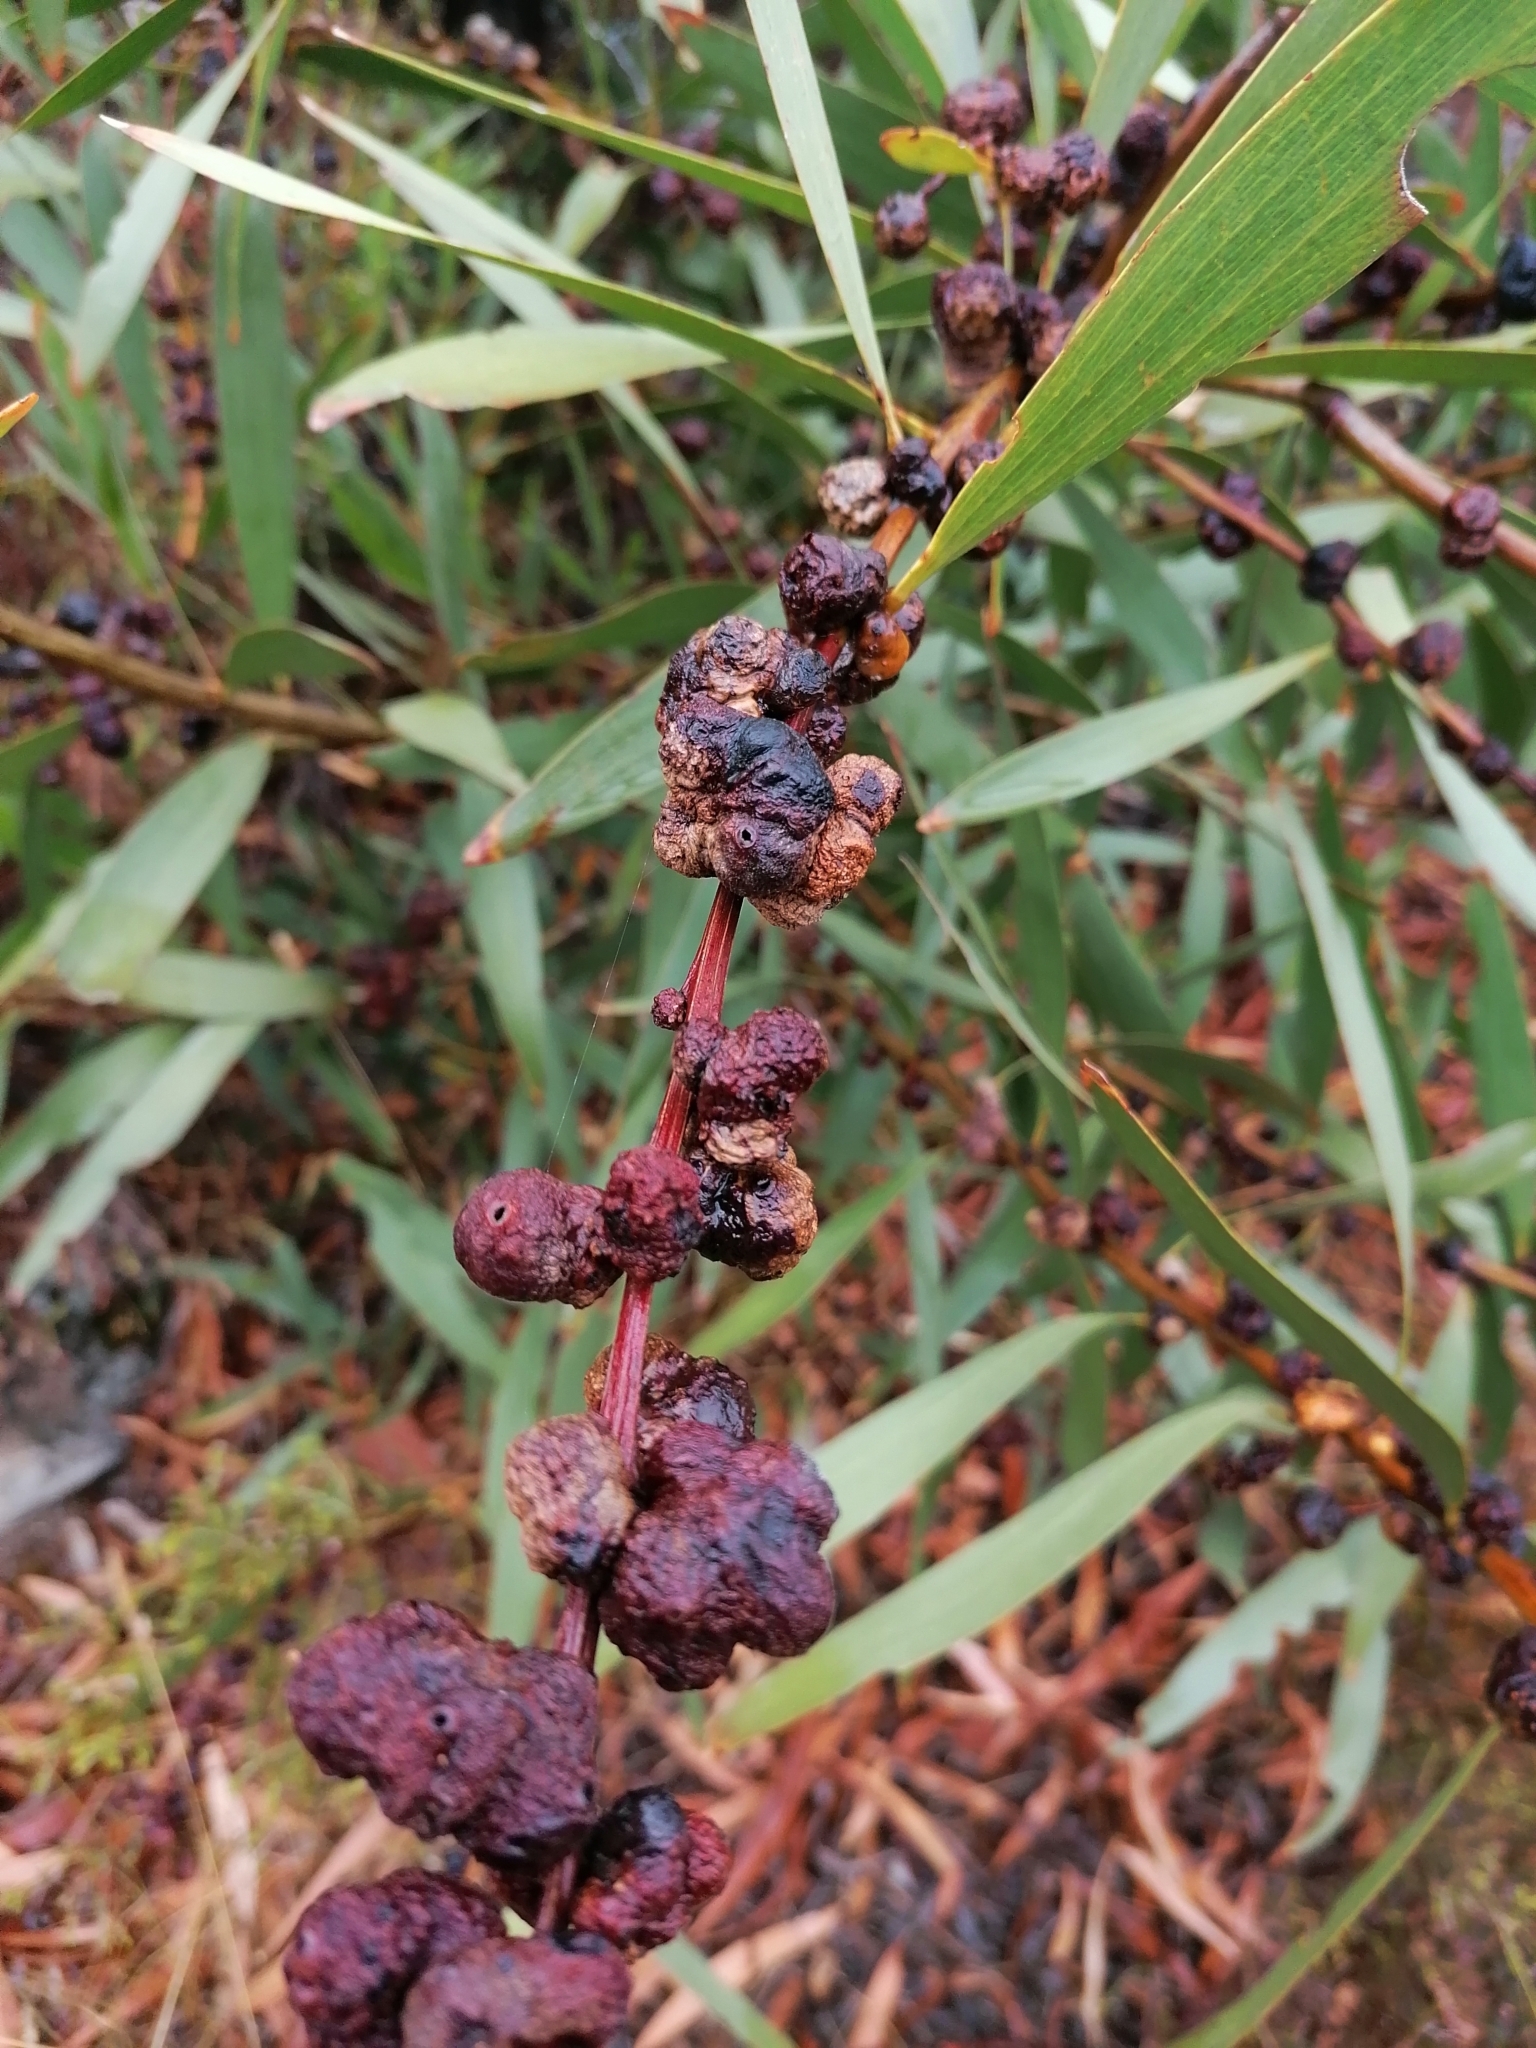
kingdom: Plantae
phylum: Tracheophyta
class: Magnoliopsida
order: Fabales
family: Fabaceae
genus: Acacia
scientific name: Acacia longifolia
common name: Sydney golden wattle
